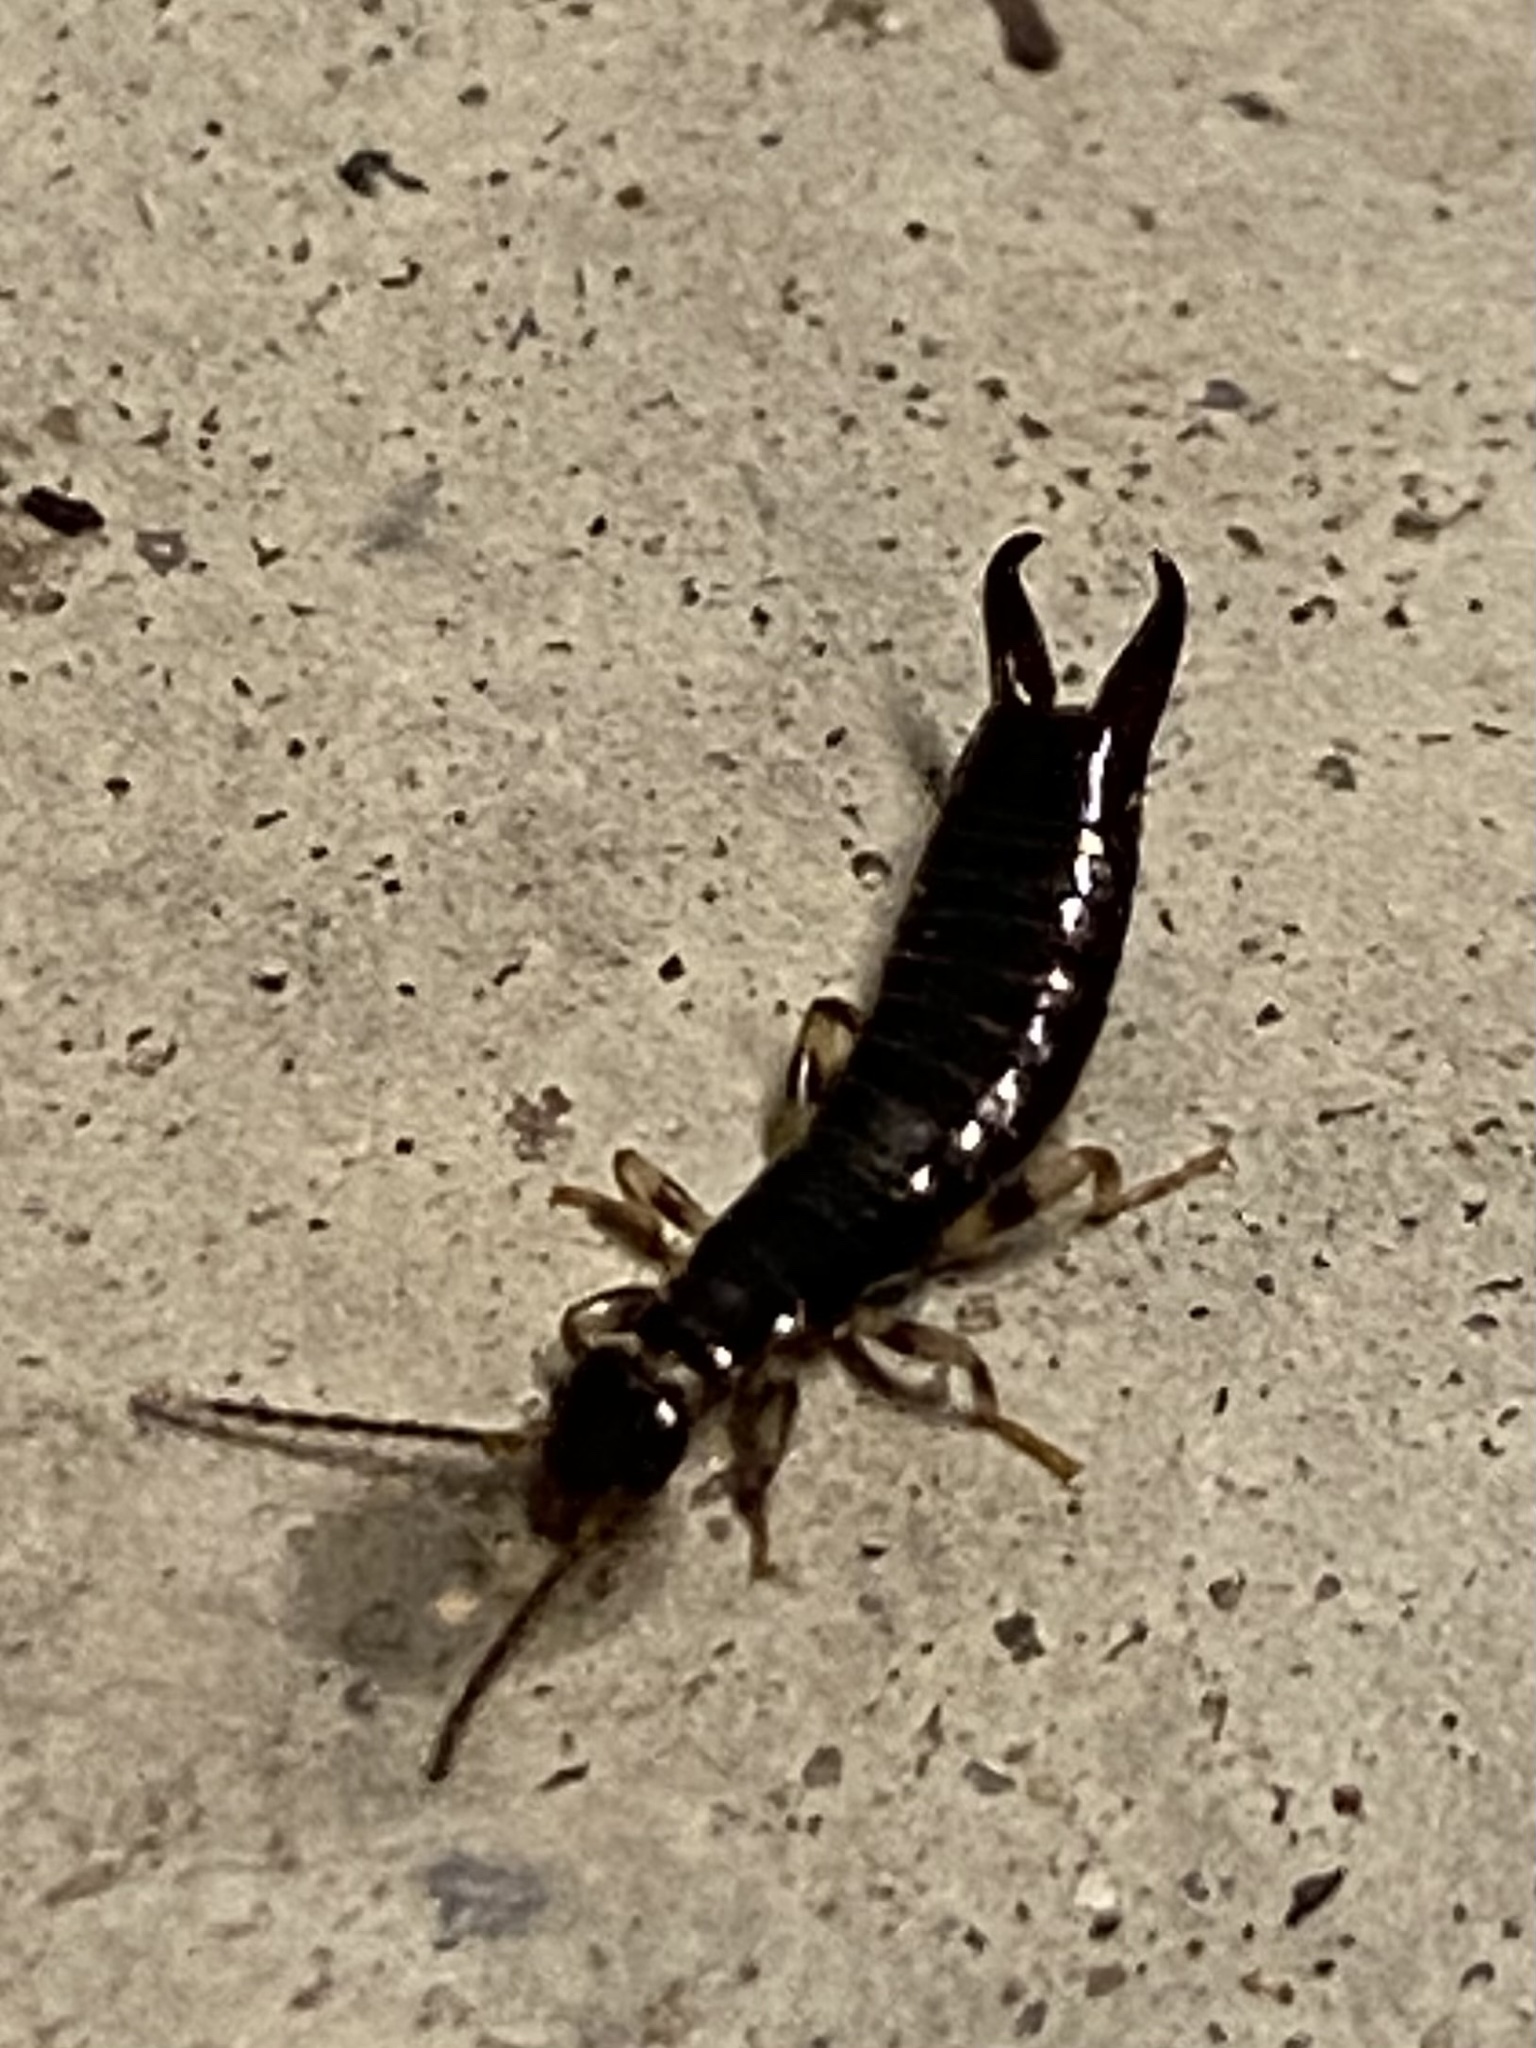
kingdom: Animalia
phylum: Arthropoda
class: Insecta
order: Dermaptera
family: Anisolabididae
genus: Euborellia
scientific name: Euborellia annulipes
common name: Ringlegged earwig
